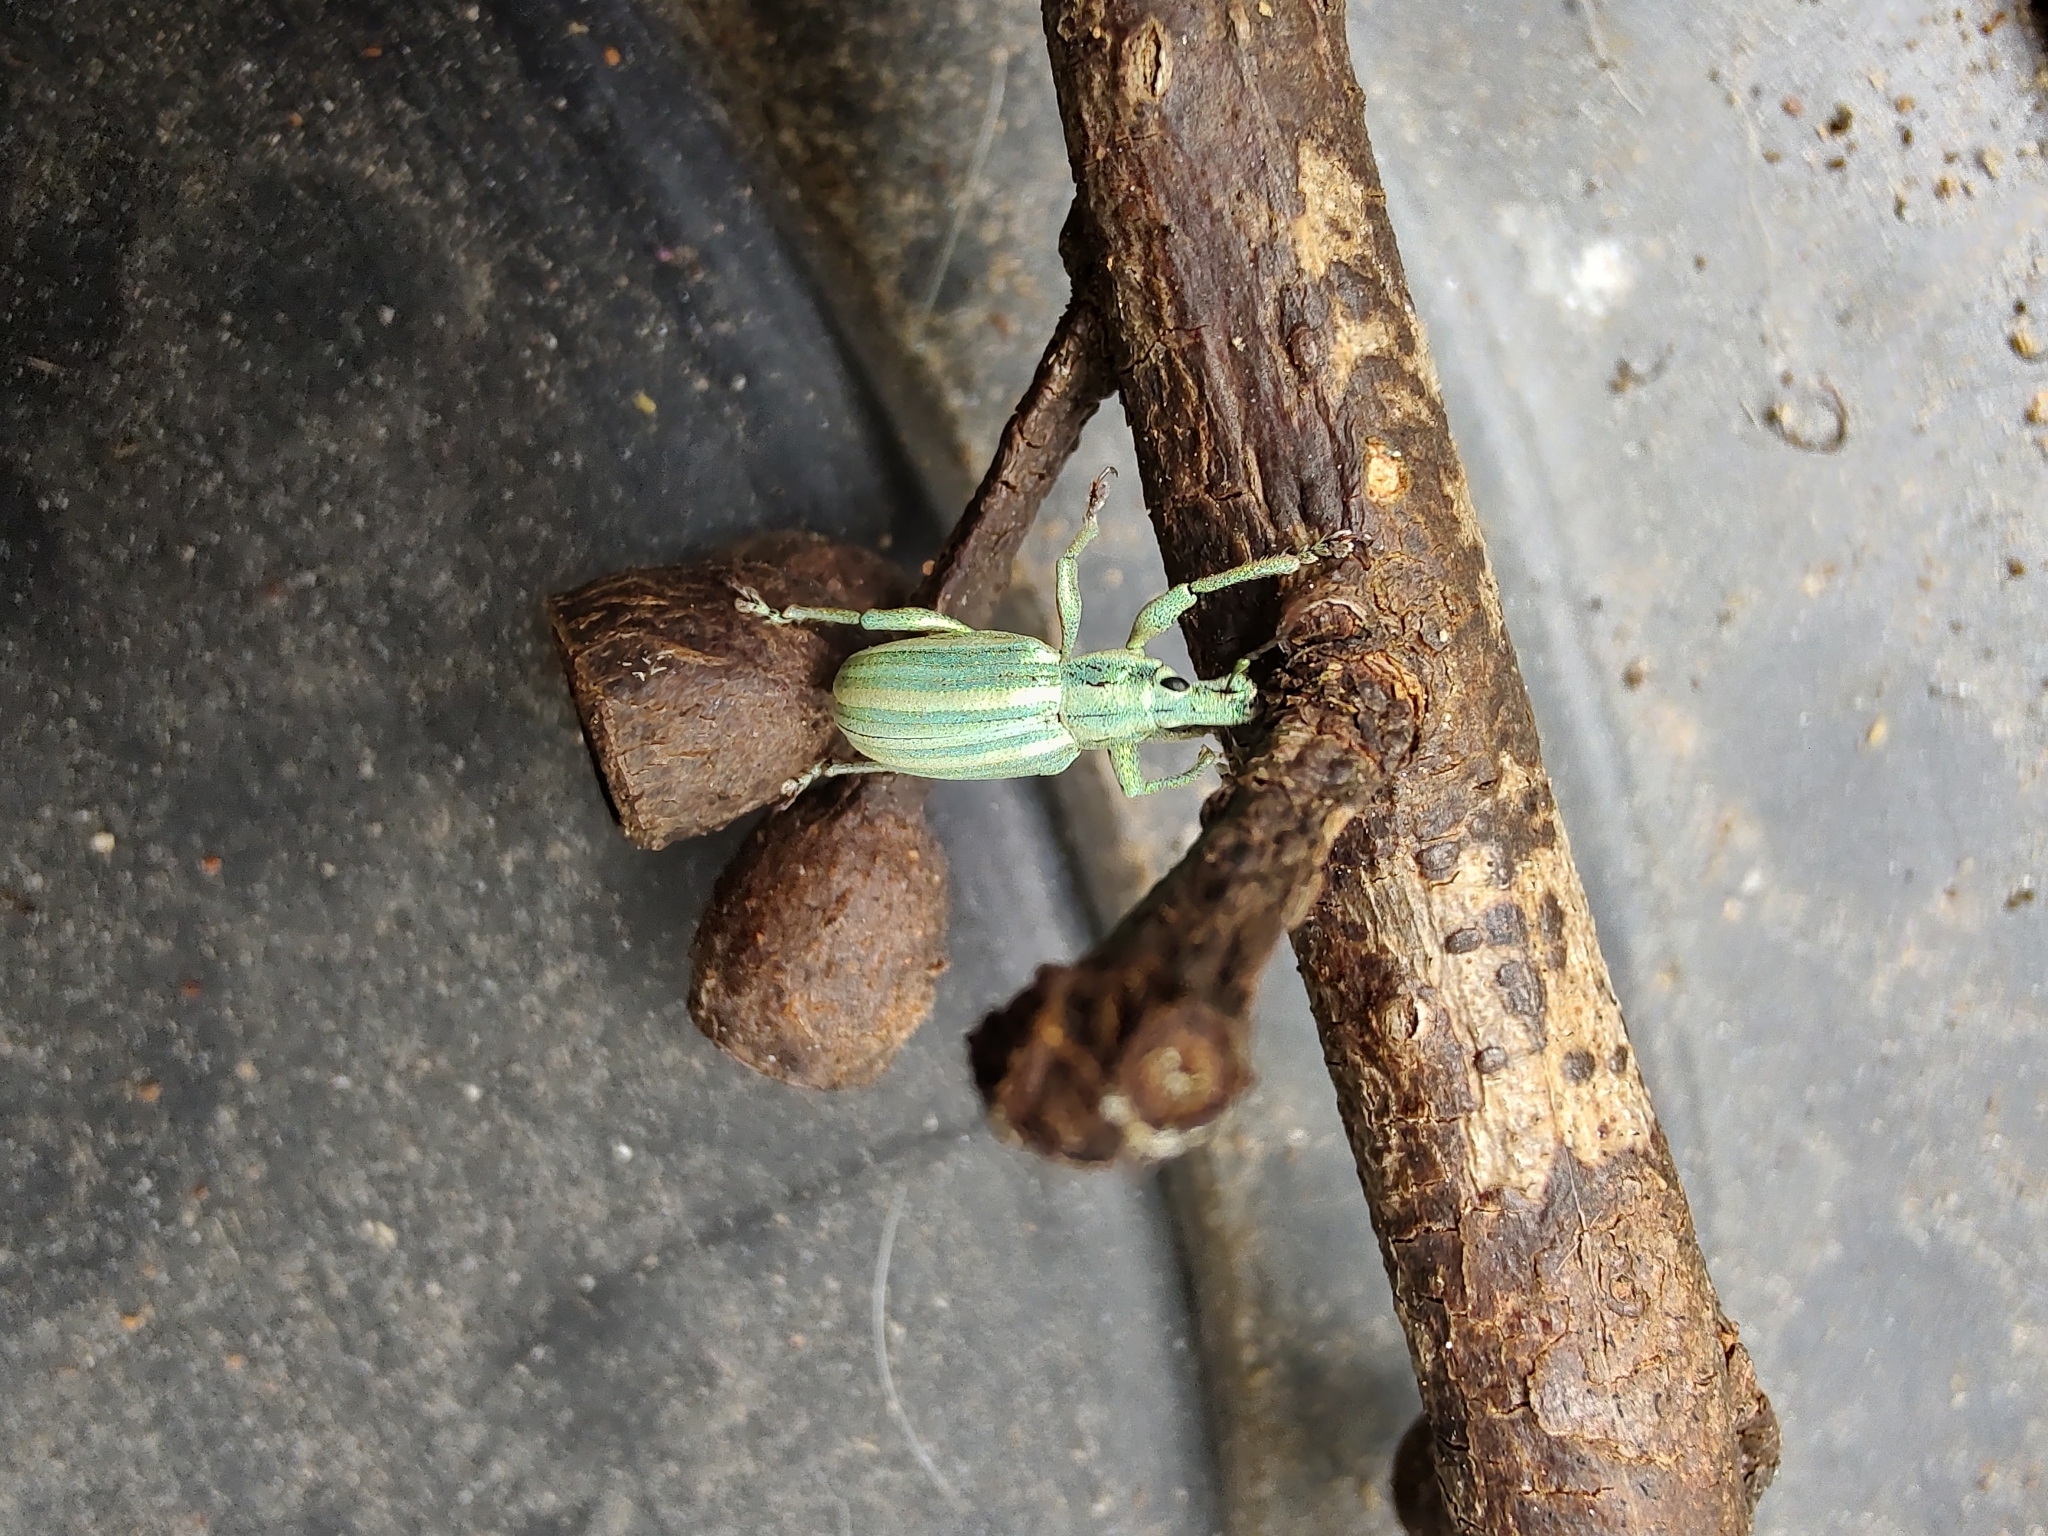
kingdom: Animalia
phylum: Arthropoda
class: Insecta
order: Coleoptera
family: Curculionidae
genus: Phaops
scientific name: Phaops ambitiosus
